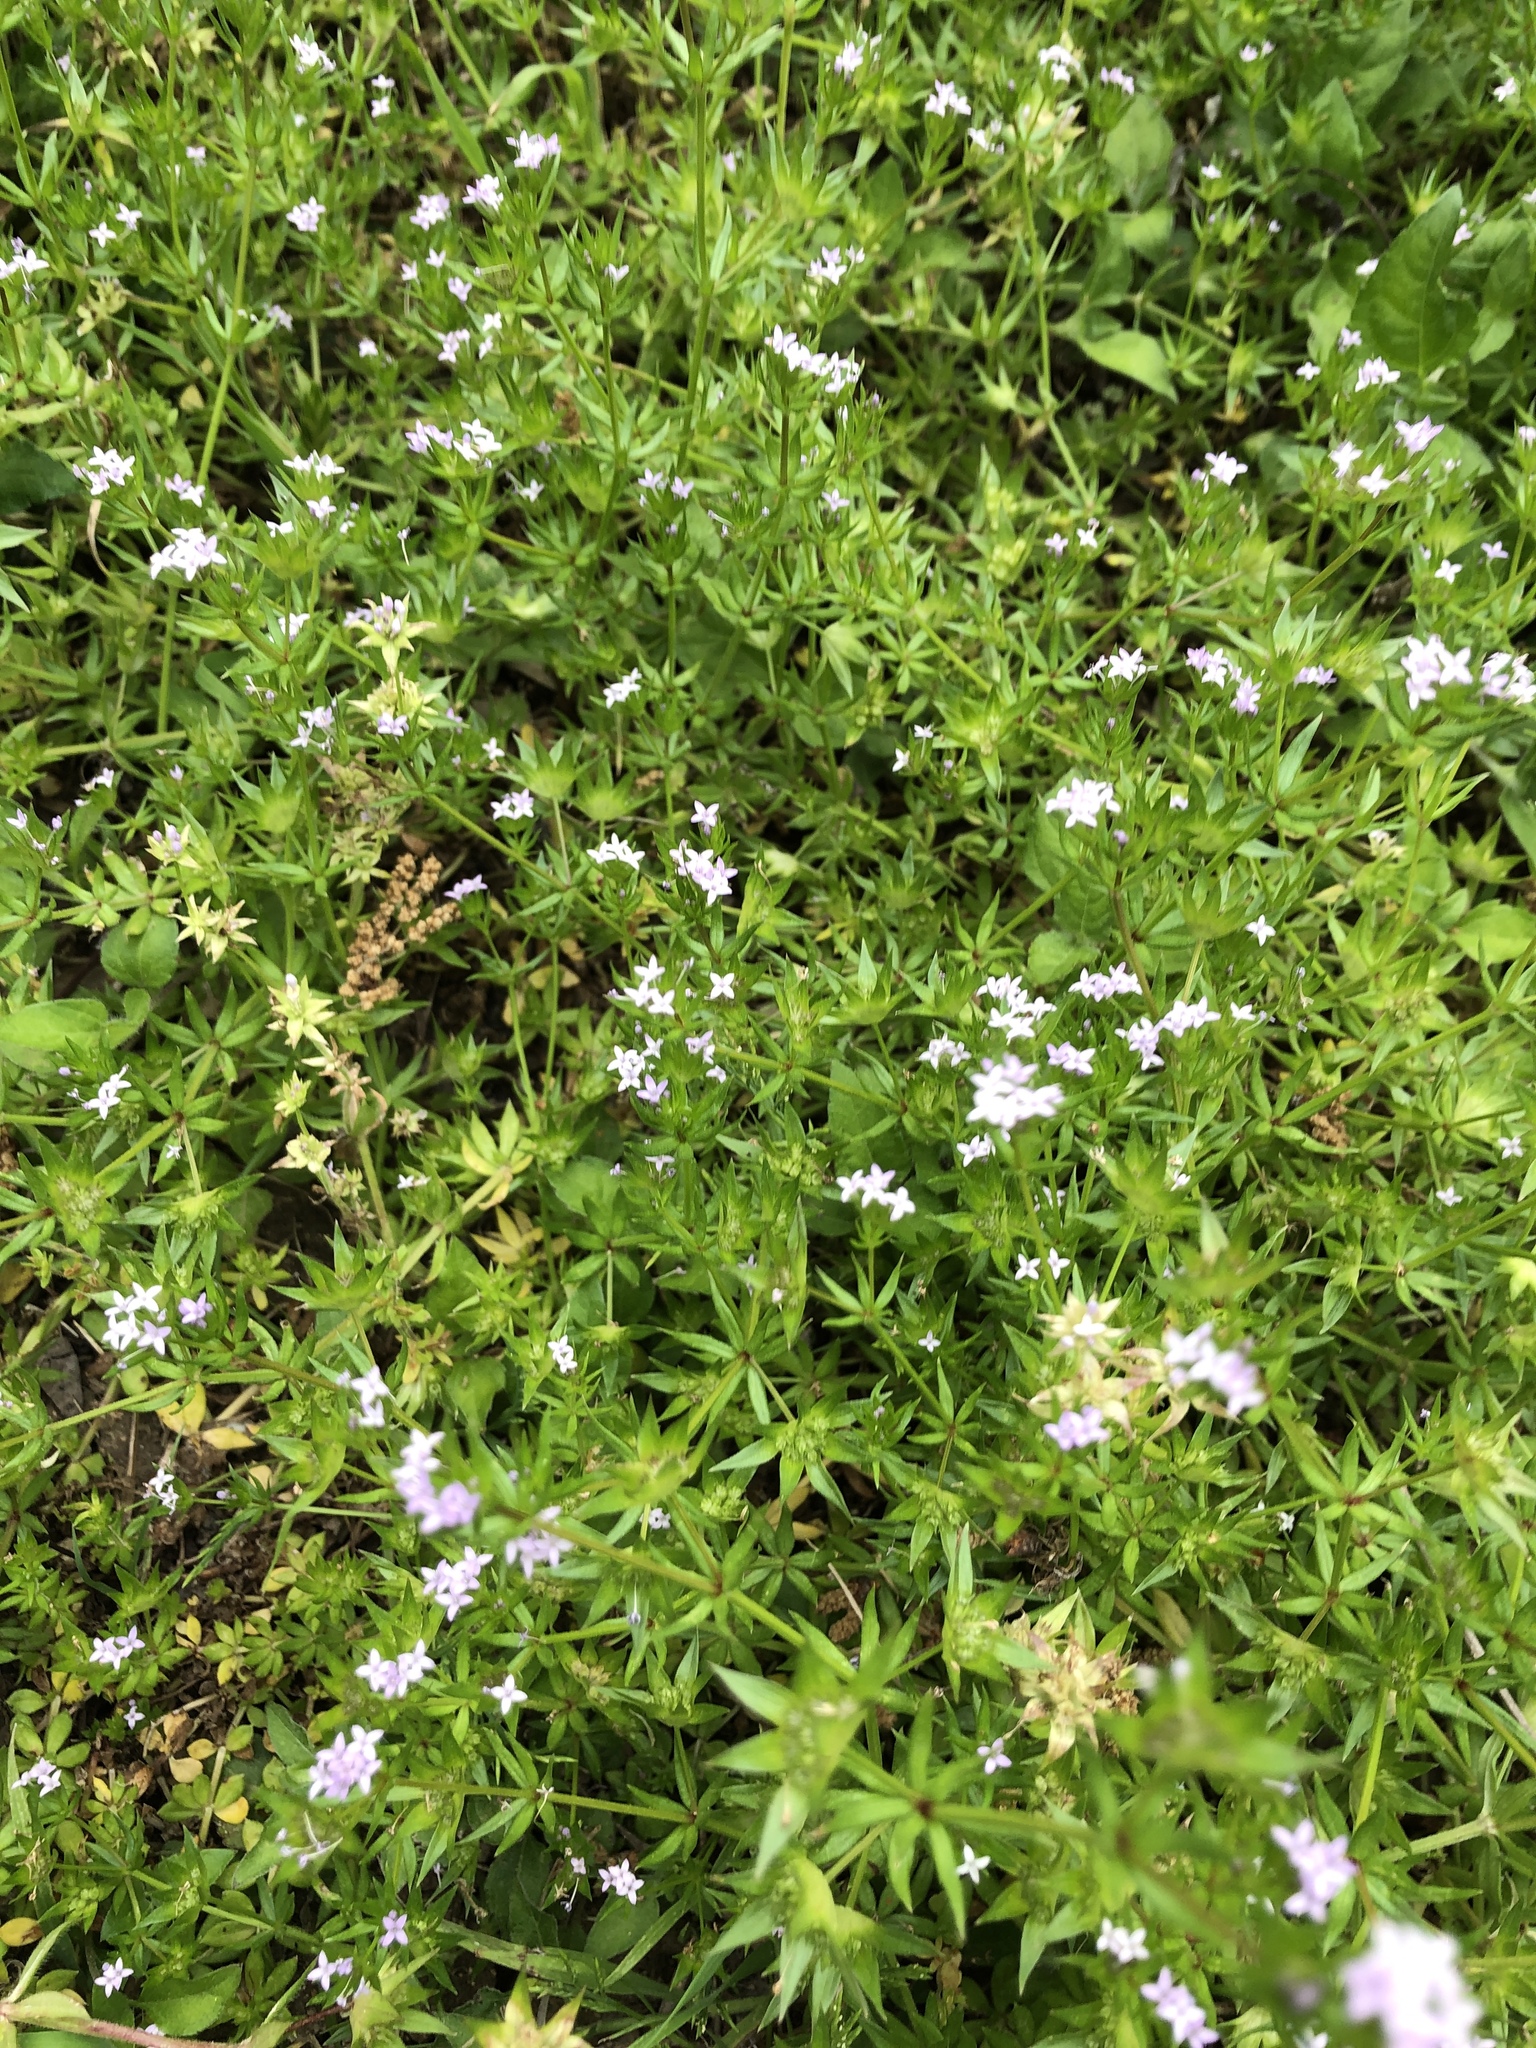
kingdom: Plantae
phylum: Tracheophyta
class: Magnoliopsida
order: Gentianales
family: Rubiaceae
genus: Sherardia
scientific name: Sherardia arvensis
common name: Field madder
